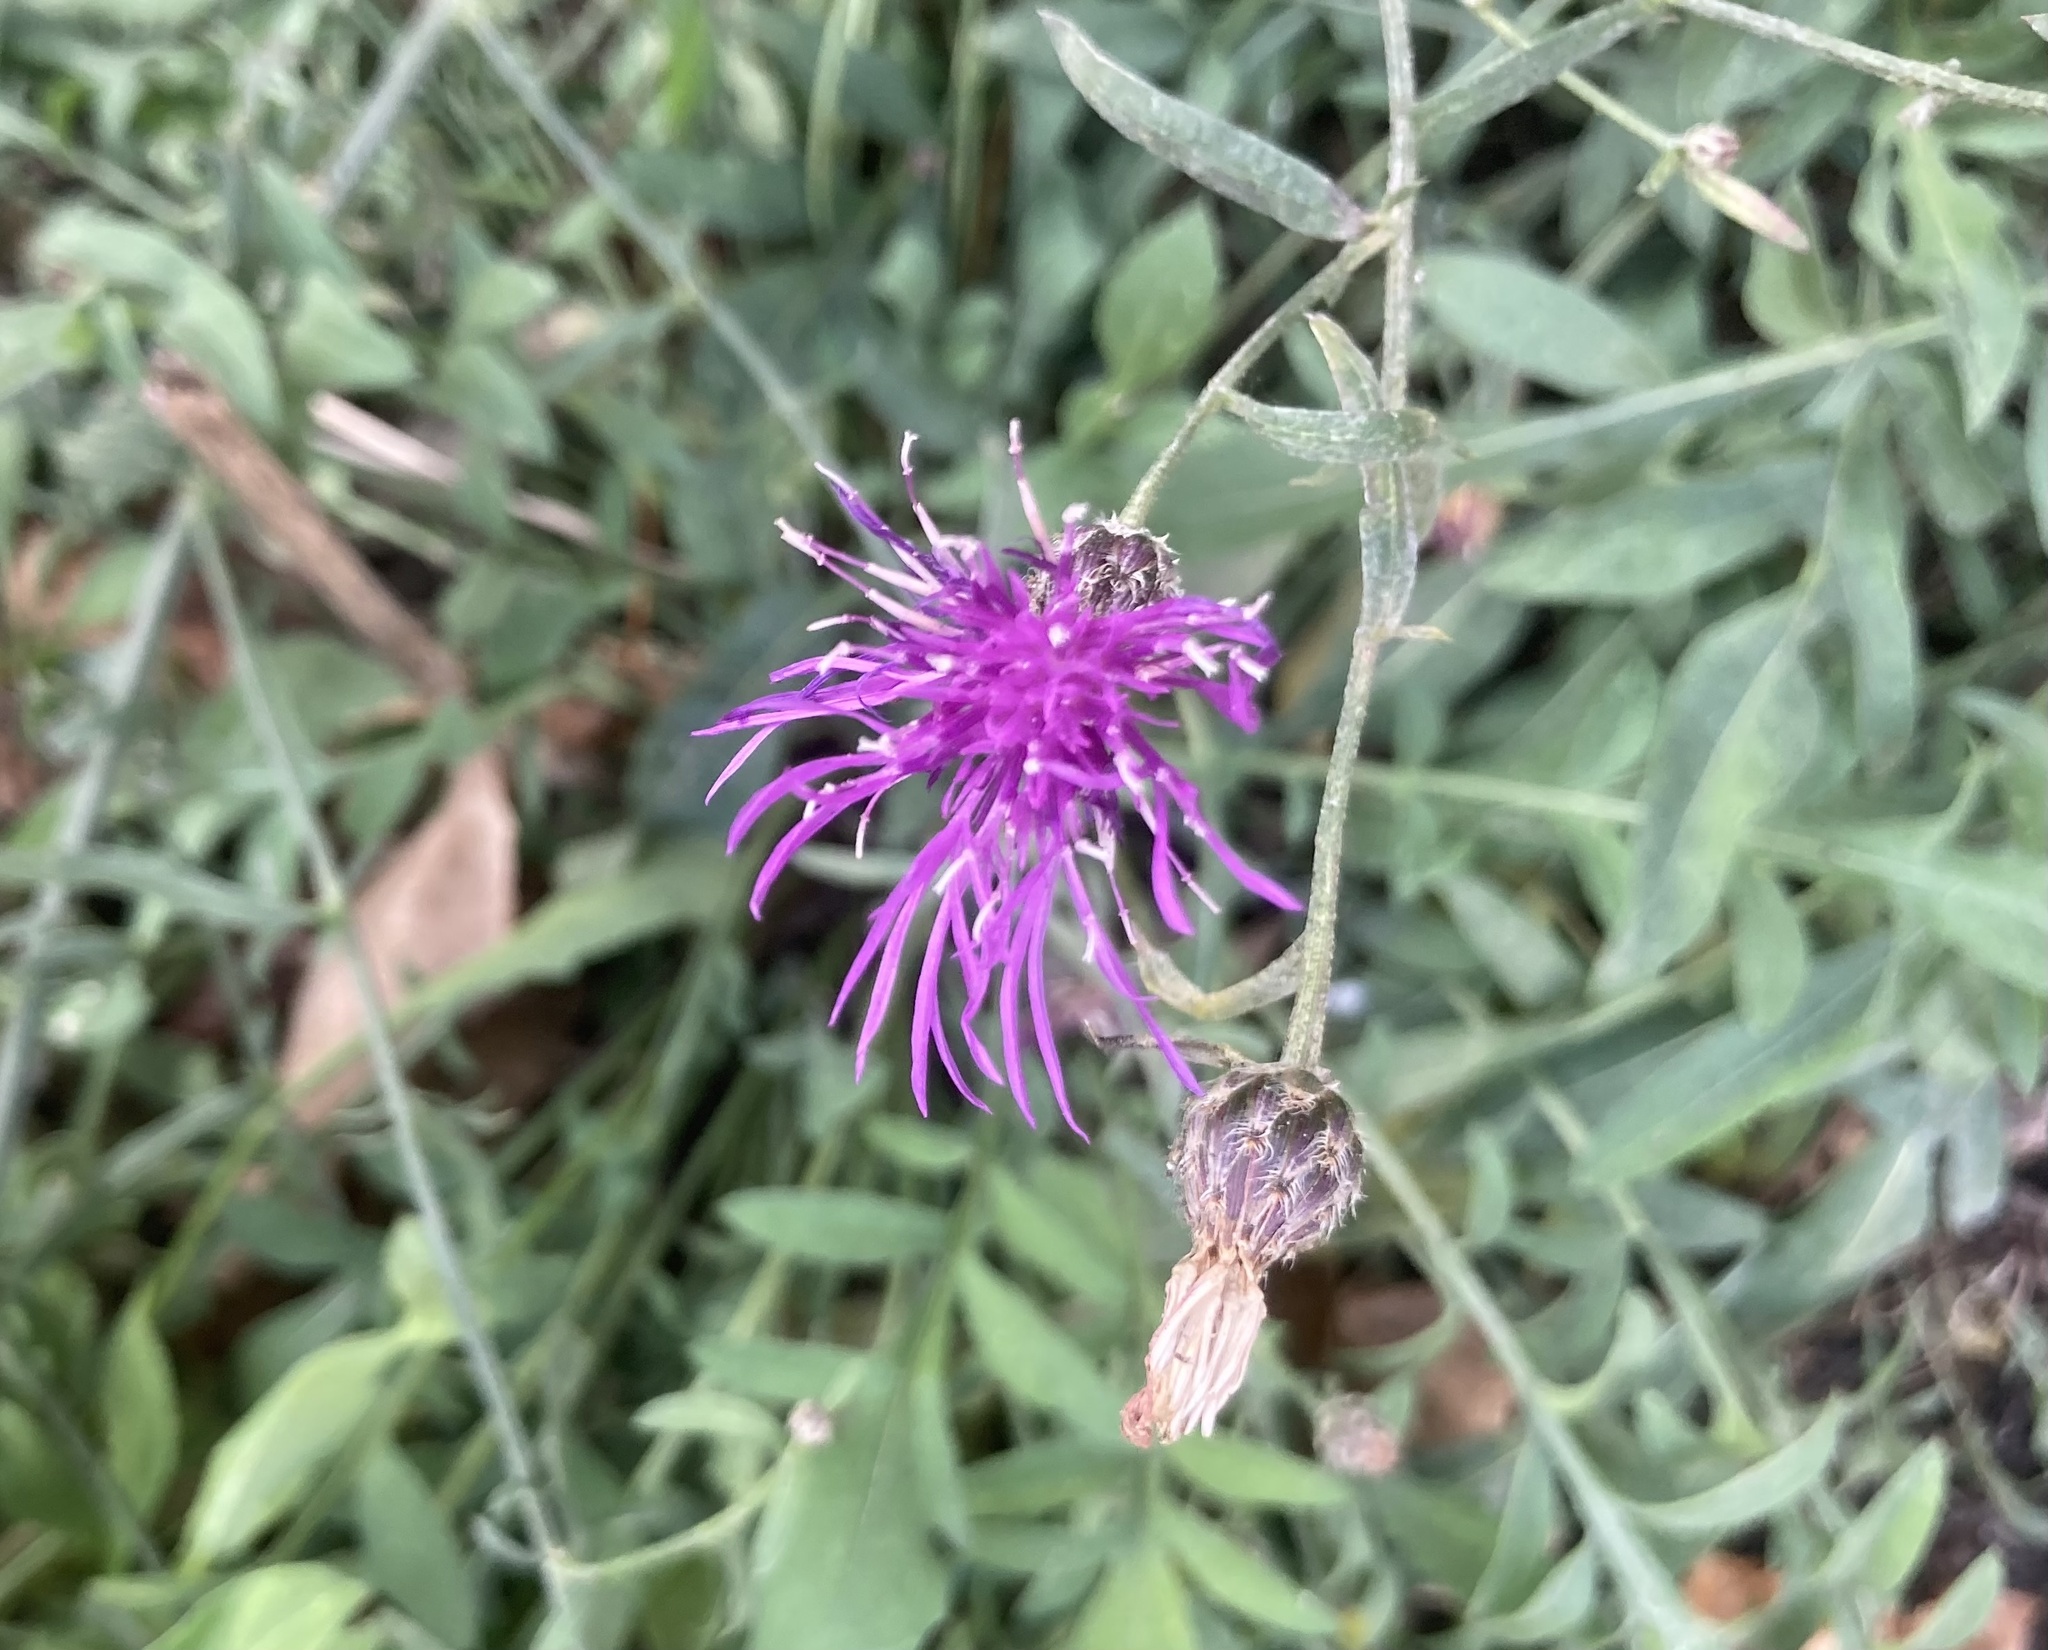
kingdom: Plantae
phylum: Tracheophyta
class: Magnoliopsida
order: Asterales
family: Asteraceae
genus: Centaurea
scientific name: Centaurea stoebe
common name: Spotted knapweed
